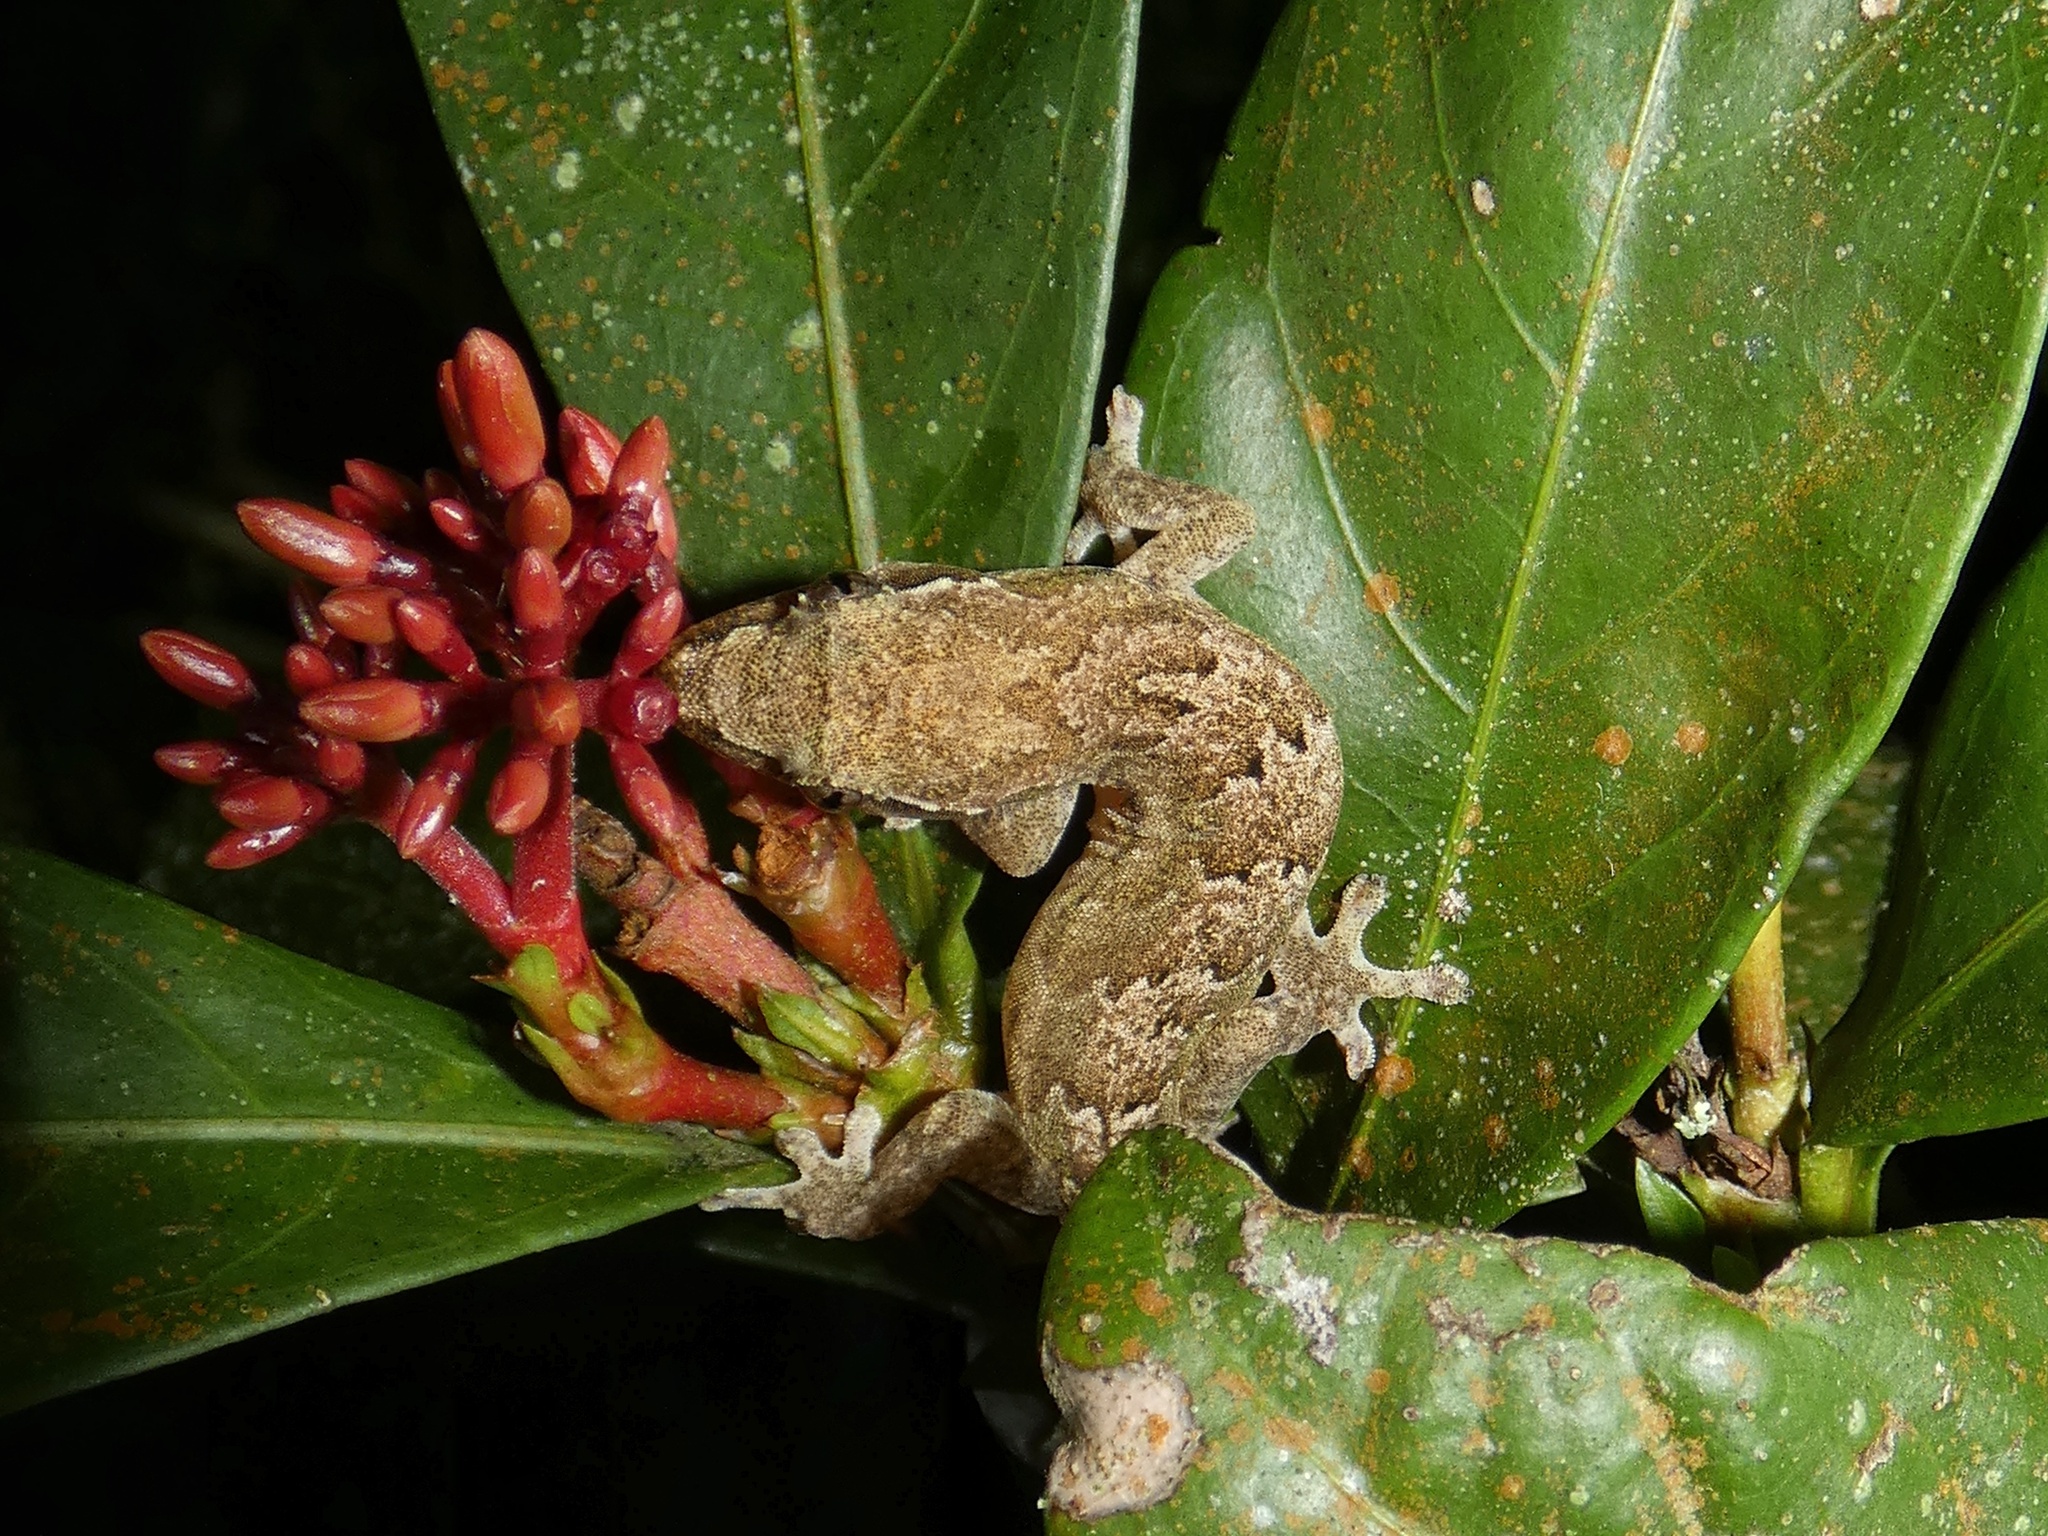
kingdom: Animalia
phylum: Chordata
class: Squamata
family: Gekkonidae
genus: Lepidodactylus
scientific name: Lepidodactylus lugubris
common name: Mourning gecko
